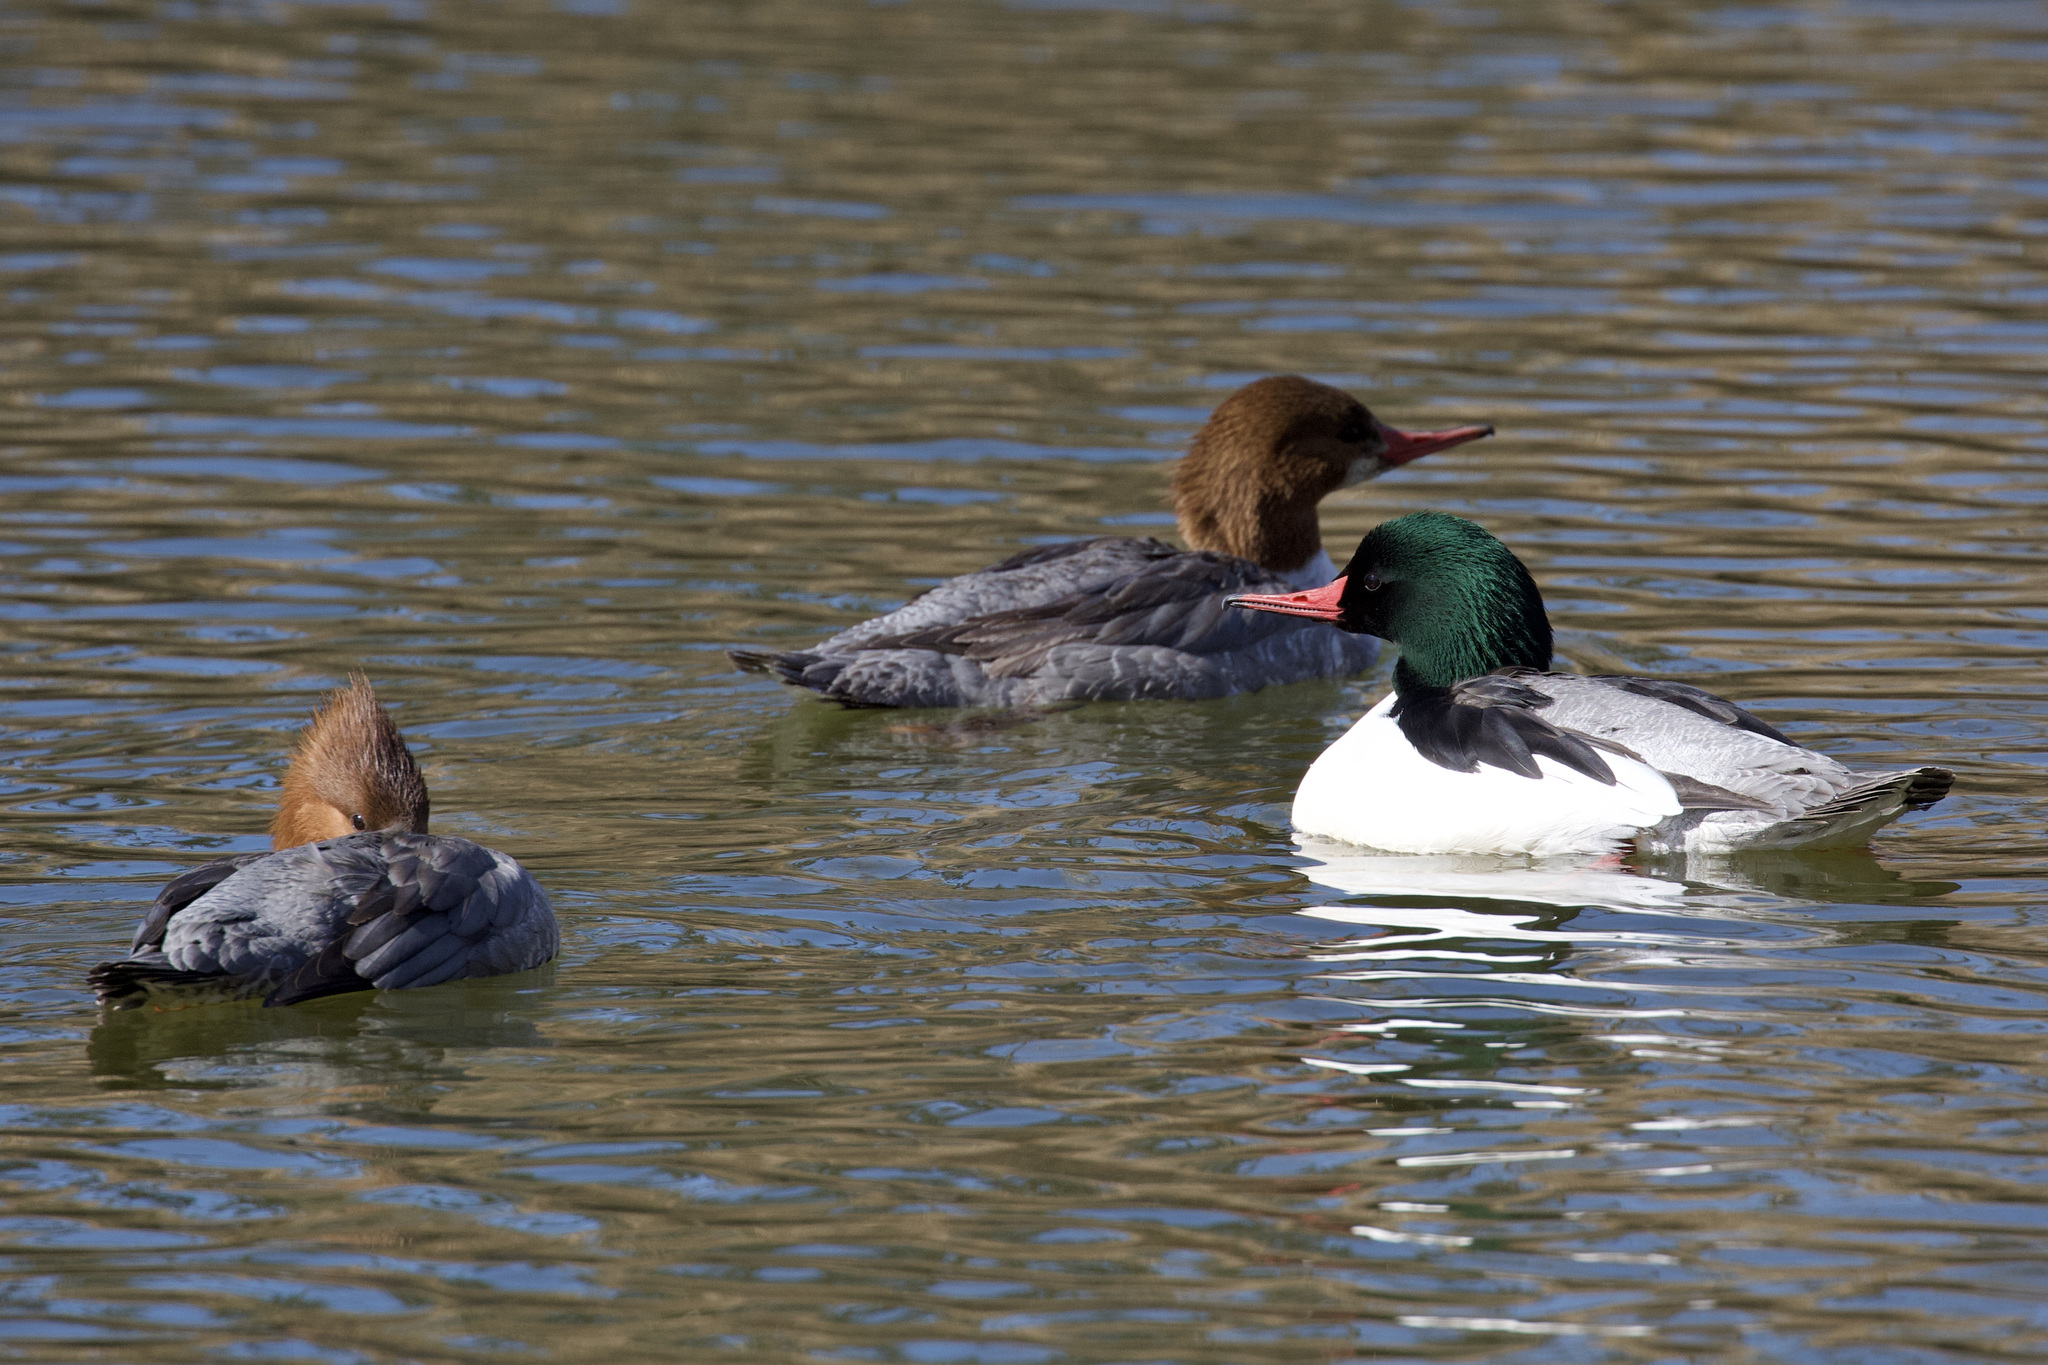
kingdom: Animalia
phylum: Chordata
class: Aves
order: Anseriformes
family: Anatidae
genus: Mergus
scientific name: Mergus merganser
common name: Common merganser
